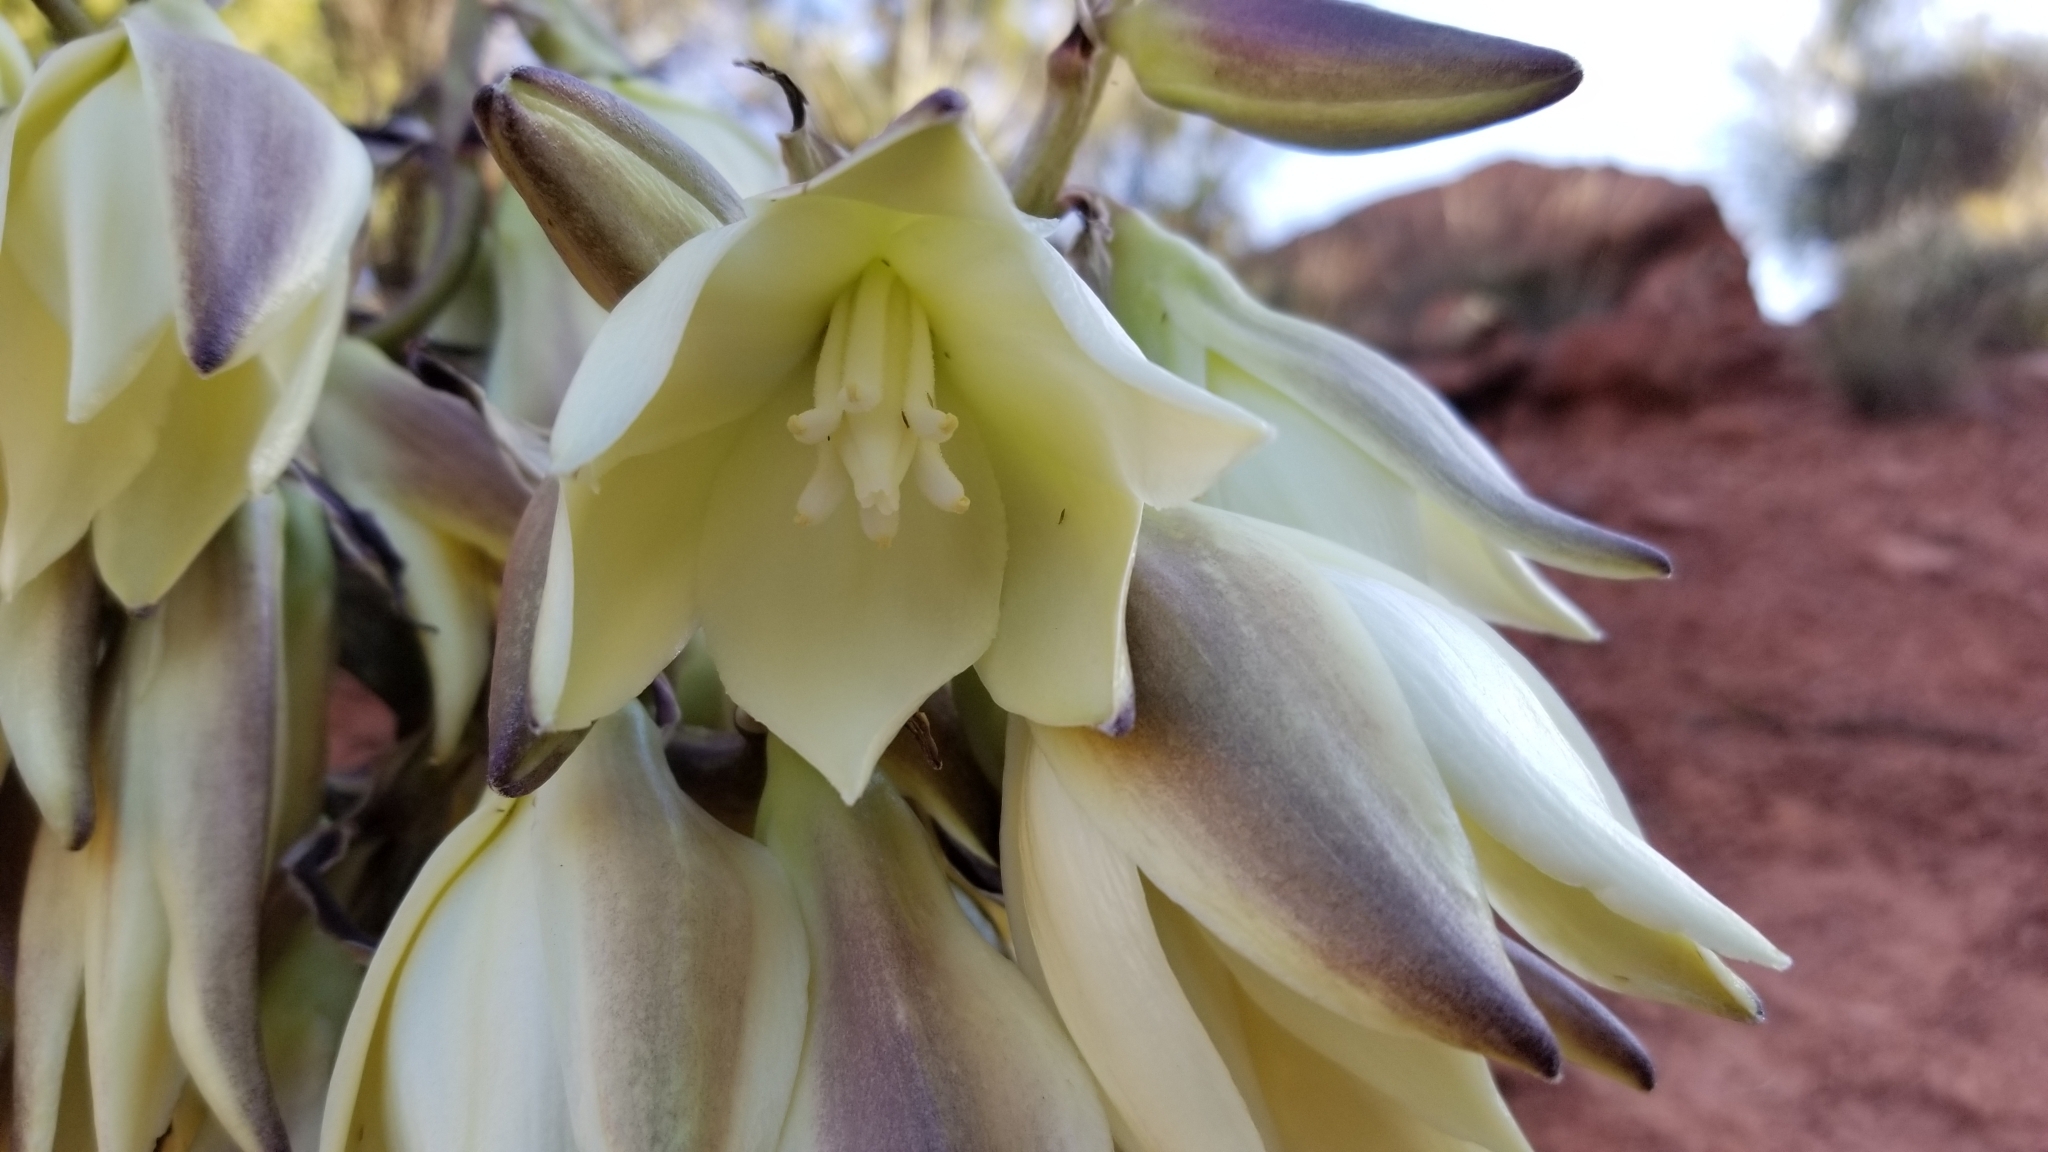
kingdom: Plantae
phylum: Tracheophyta
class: Liliopsida
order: Asparagales
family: Asparagaceae
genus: Yucca
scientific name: Yucca baccata
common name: Banana yucca
